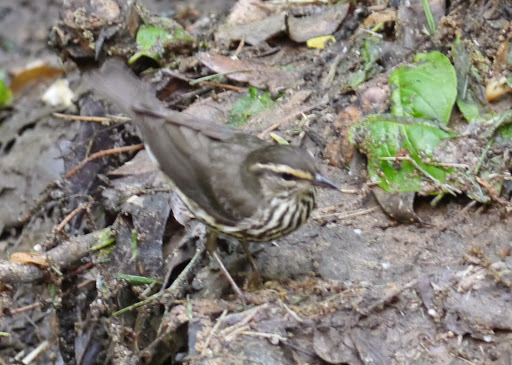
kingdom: Animalia
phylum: Chordata
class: Aves
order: Passeriformes
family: Parulidae
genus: Parkesia
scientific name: Parkesia noveboracensis
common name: Northern waterthrush
